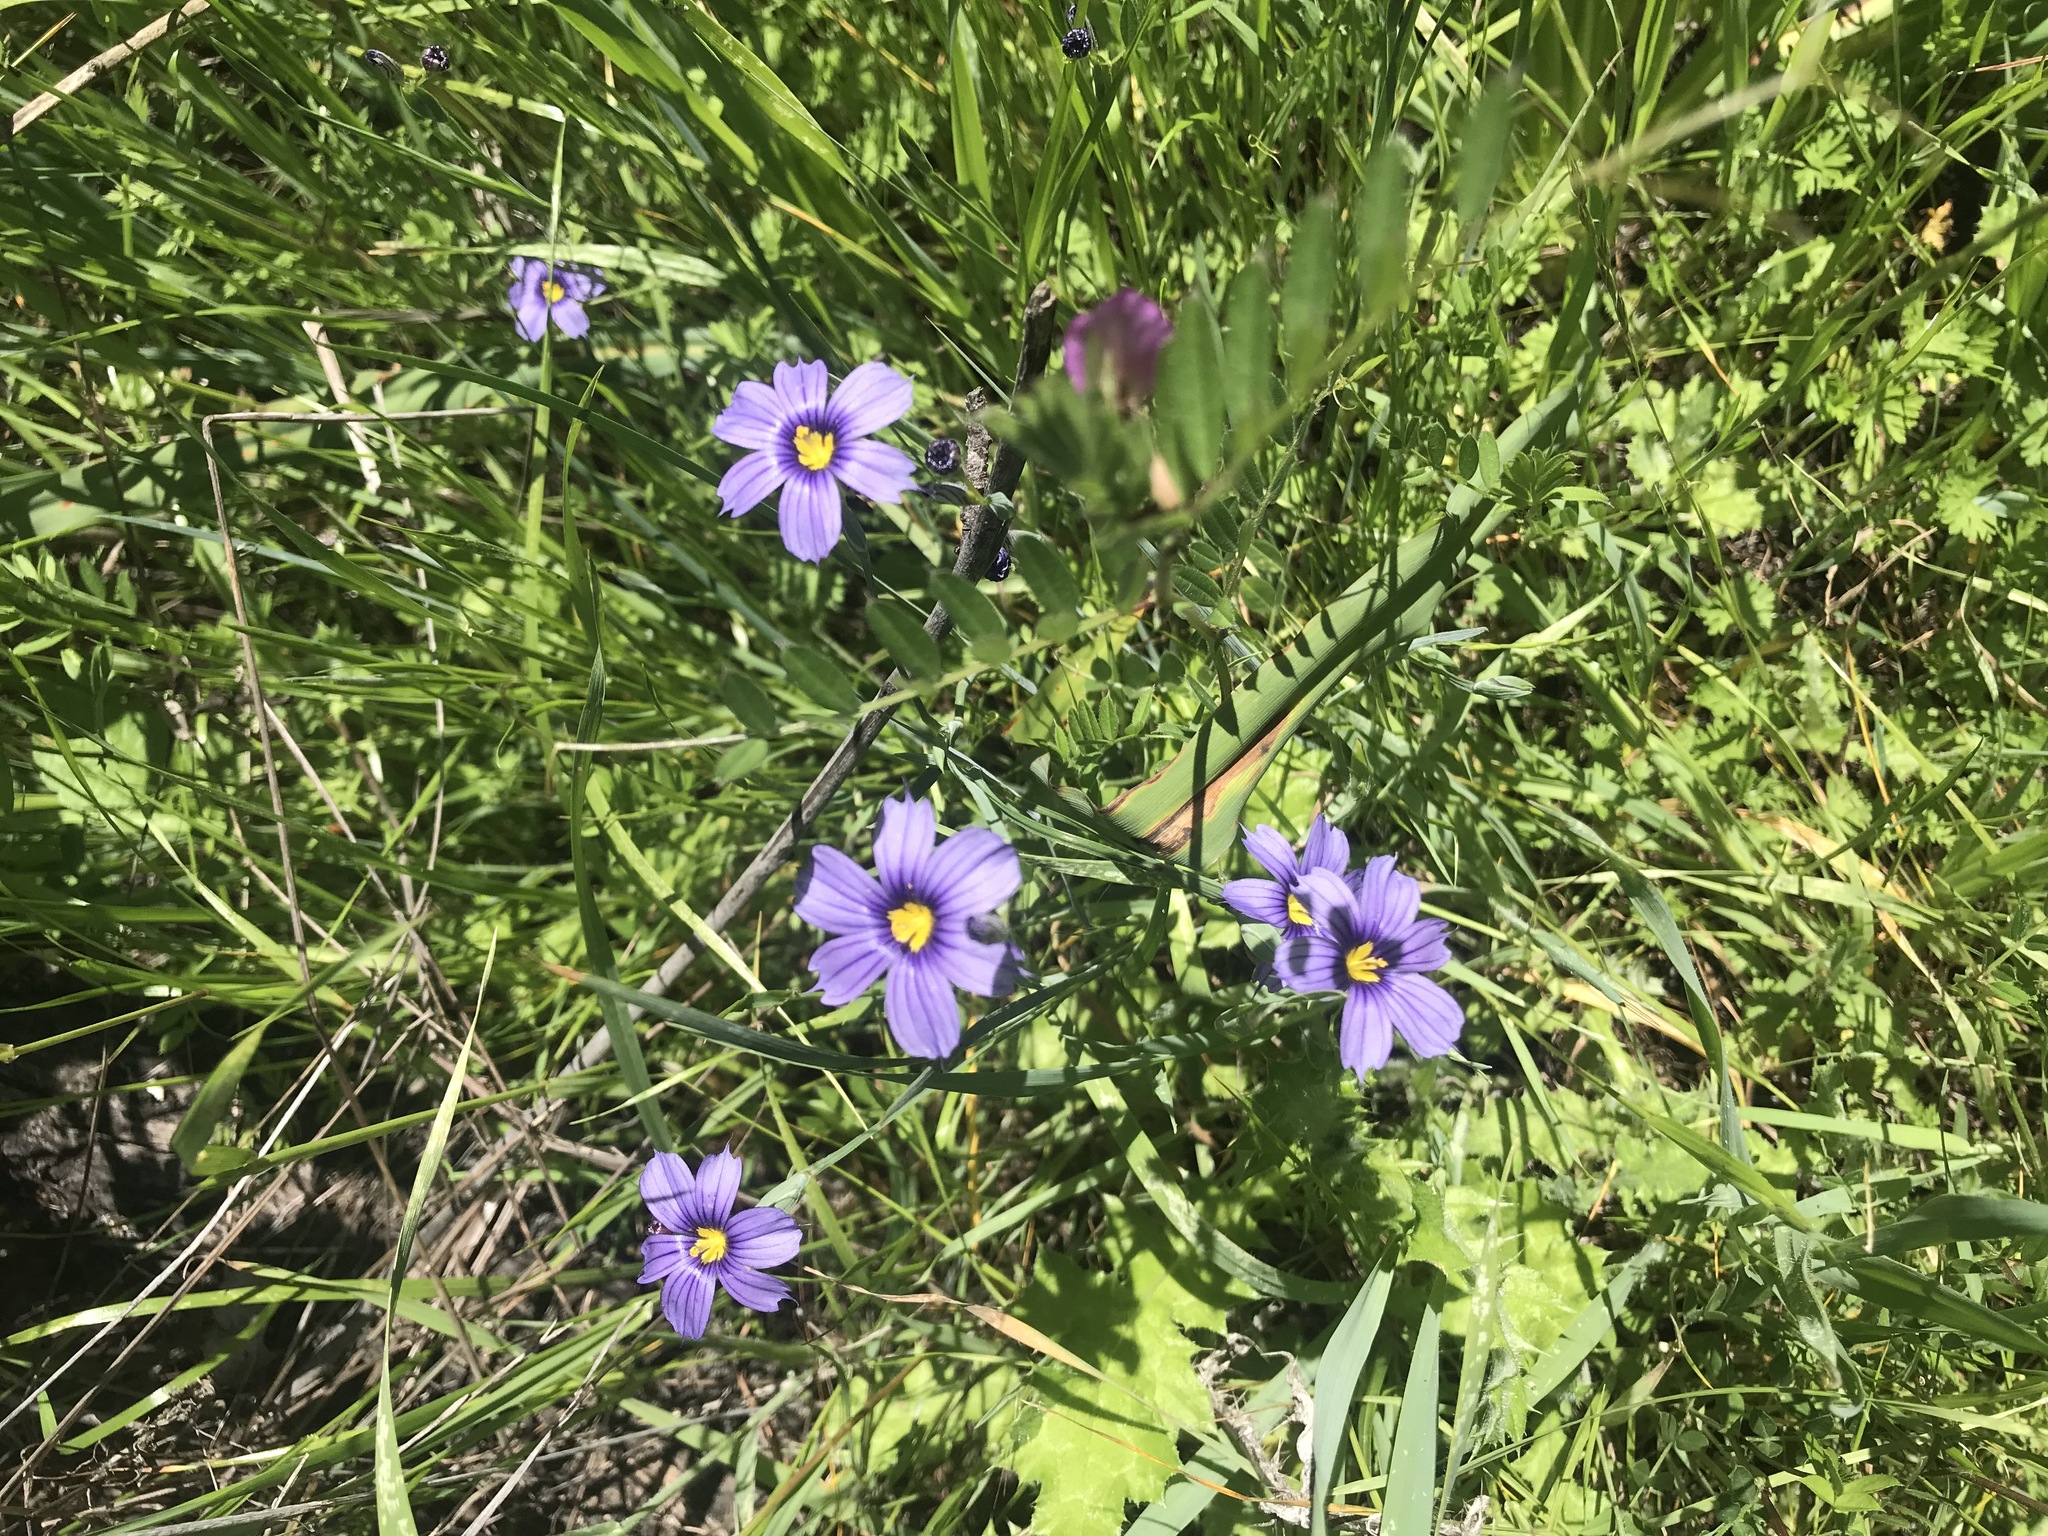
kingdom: Plantae
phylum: Tracheophyta
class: Liliopsida
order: Asparagales
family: Iridaceae
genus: Sisyrinchium
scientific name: Sisyrinchium bellum
